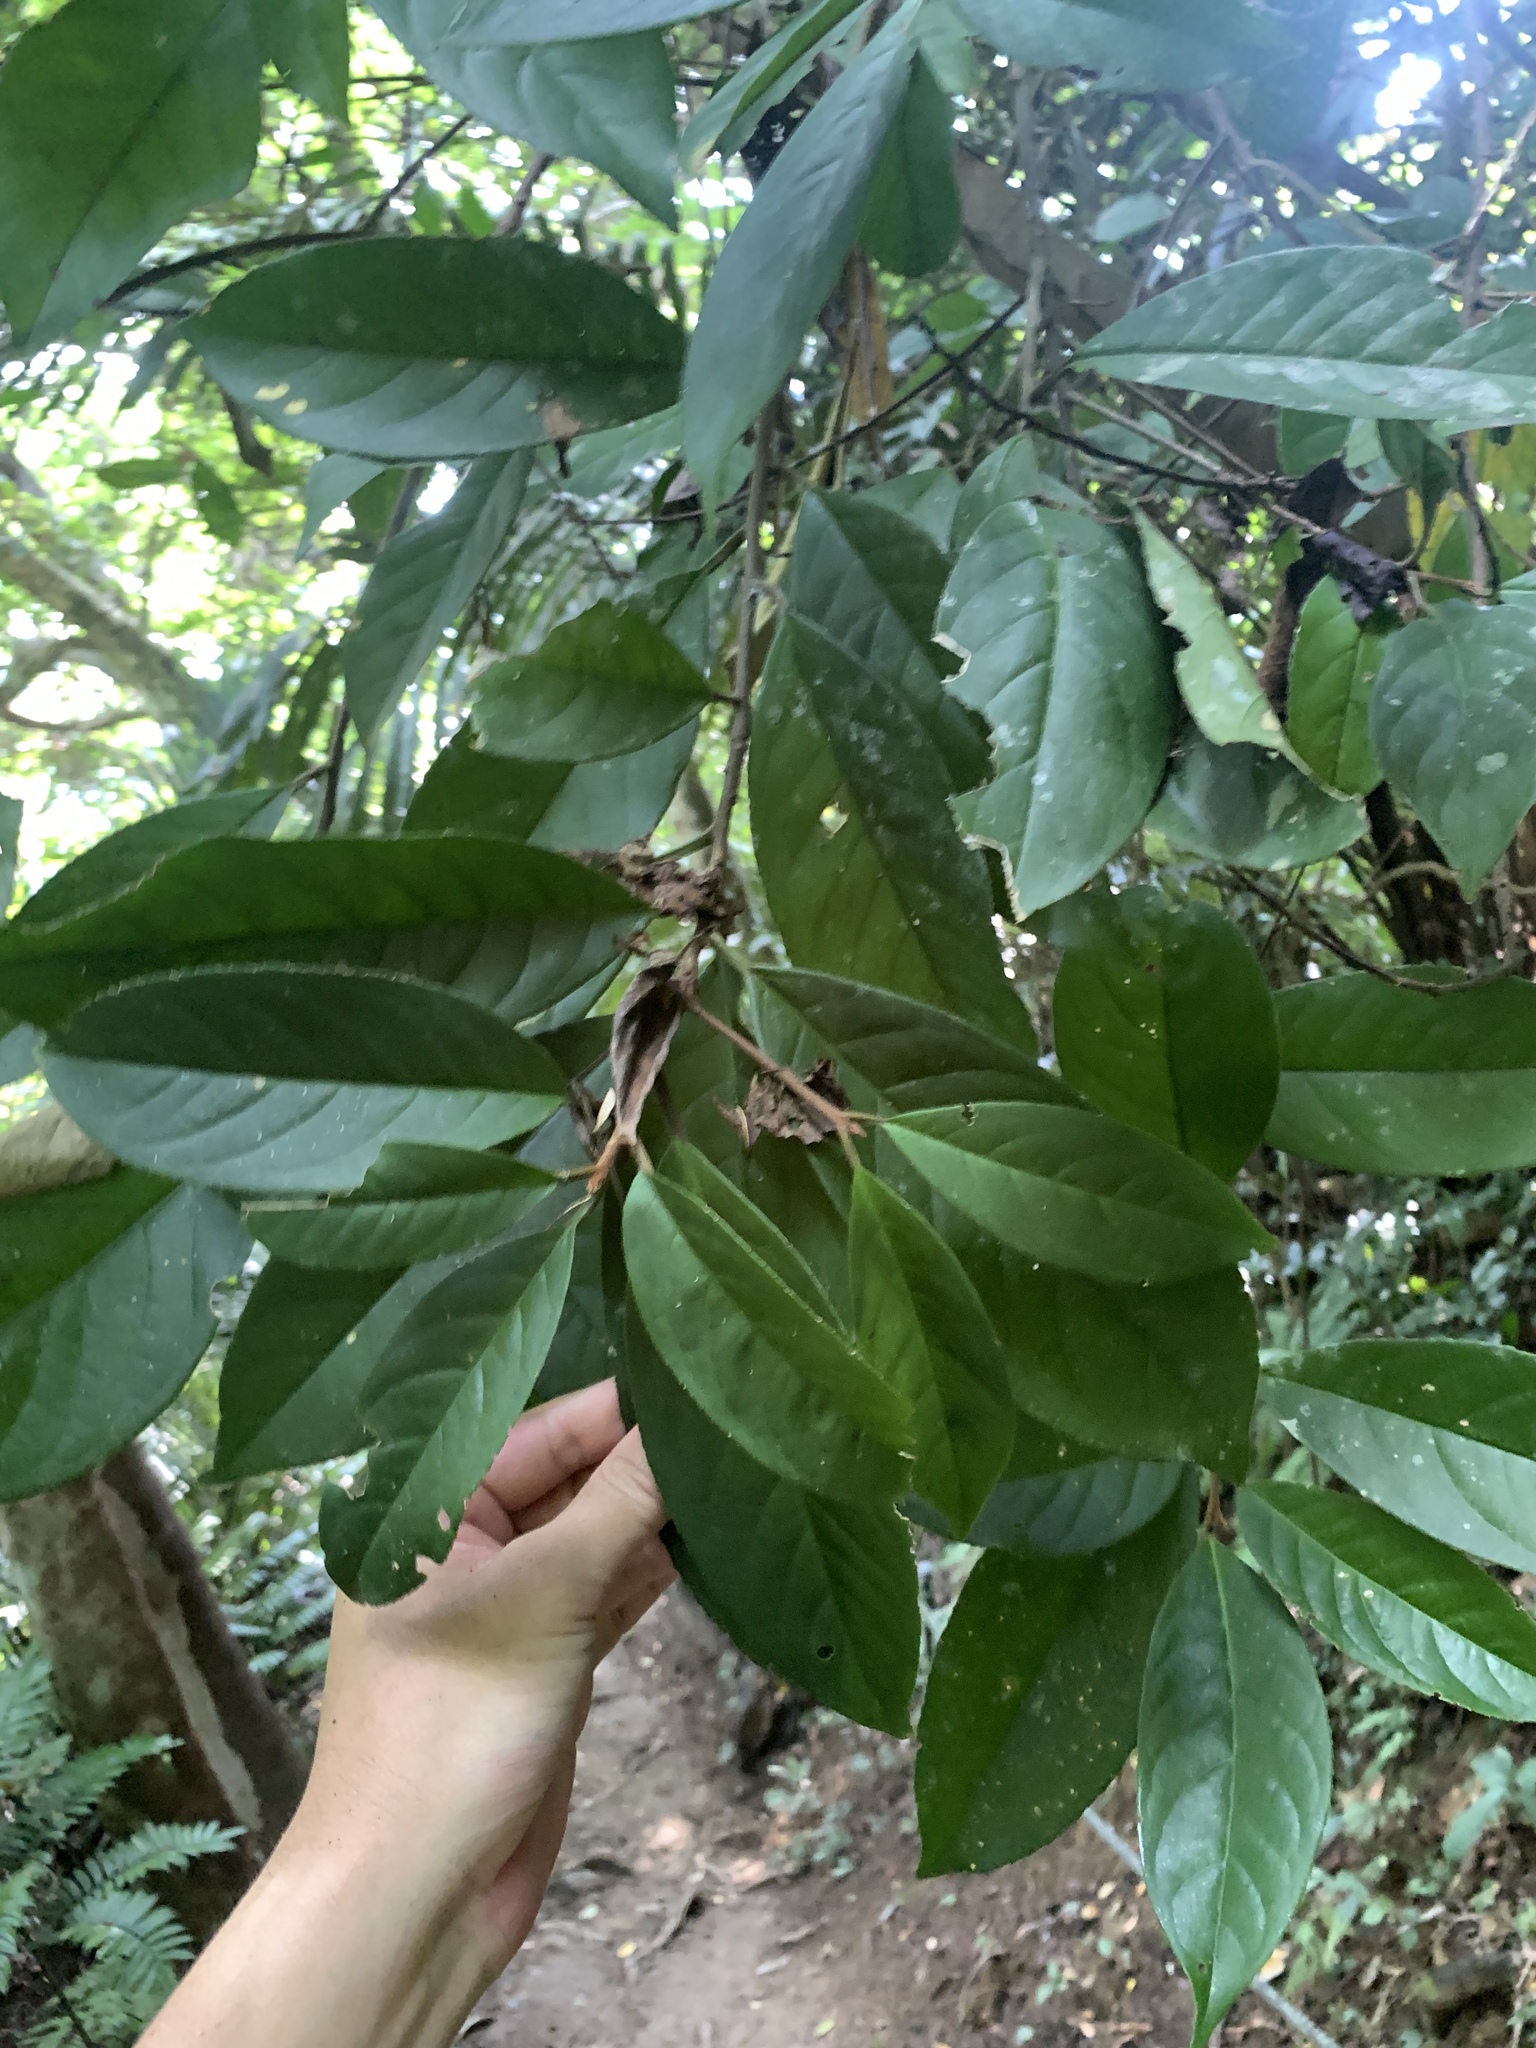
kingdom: Plantae
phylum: Tracheophyta
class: Magnoliopsida
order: Ericales
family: Symplocaceae
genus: Symplocos
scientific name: Symplocos acuminata
